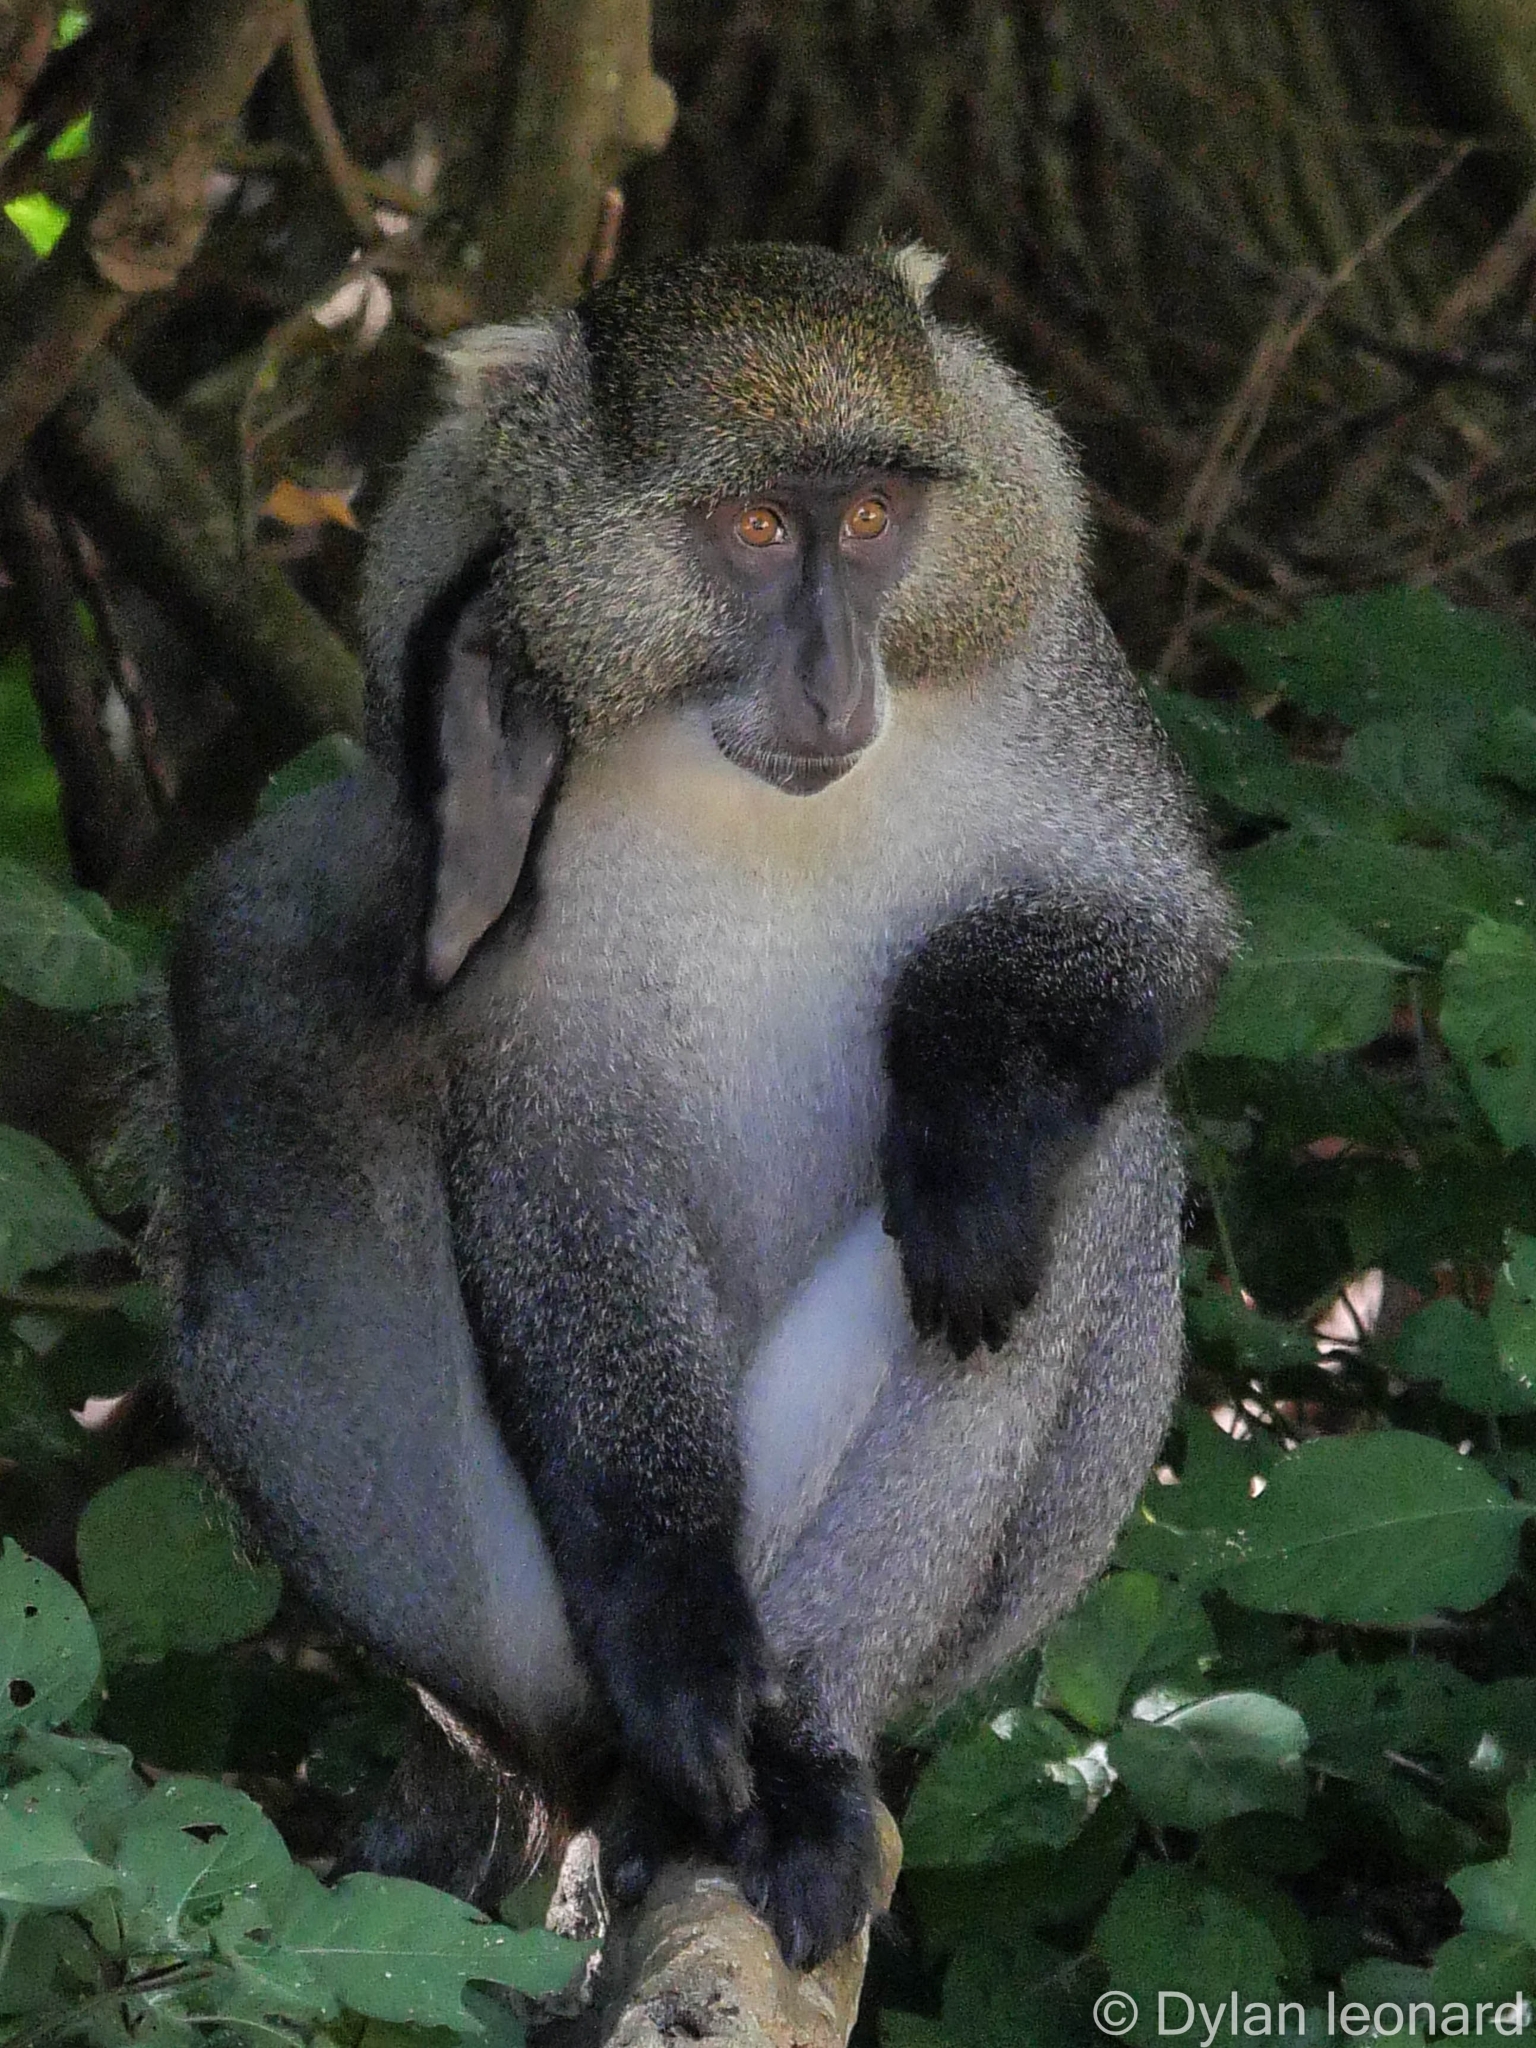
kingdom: Animalia
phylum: Chordata
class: Mammalia
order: Primates
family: Cercopithecidae
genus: Cercopithecus
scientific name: Cercopithecus mitis
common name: Blue monkey
